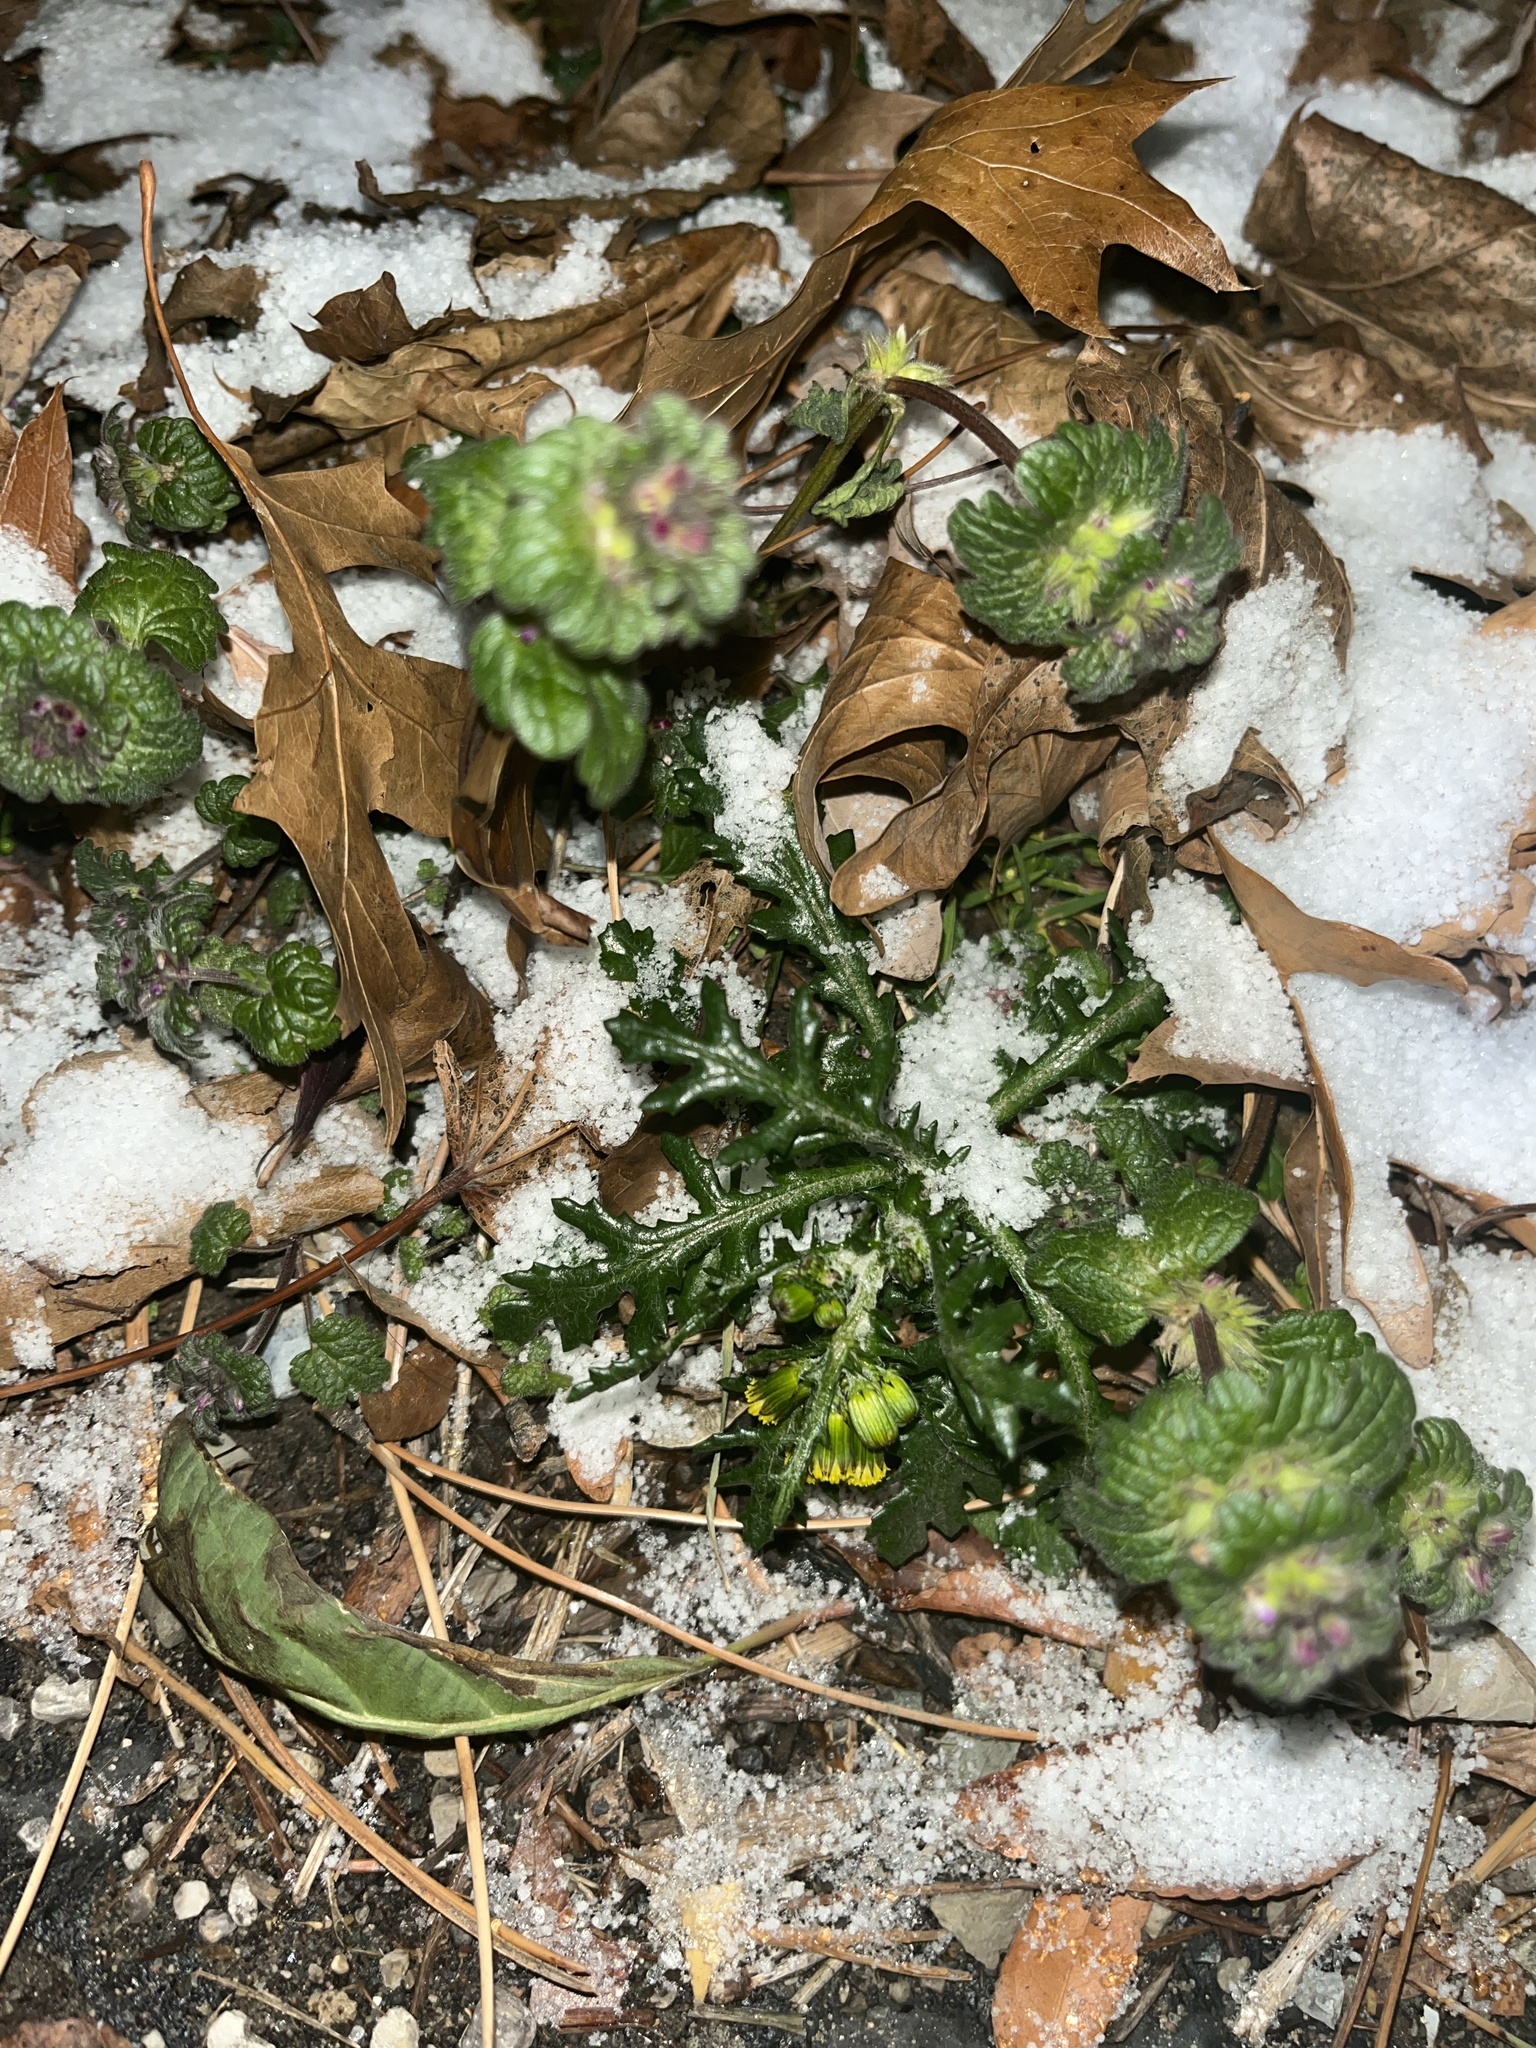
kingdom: Plantae
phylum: Tracheophyta
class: Magnoliopsida
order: Lamiales
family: Lamiaceae
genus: Lamium
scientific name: Lamium amplexicaule
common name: Henbit dead-nettle
